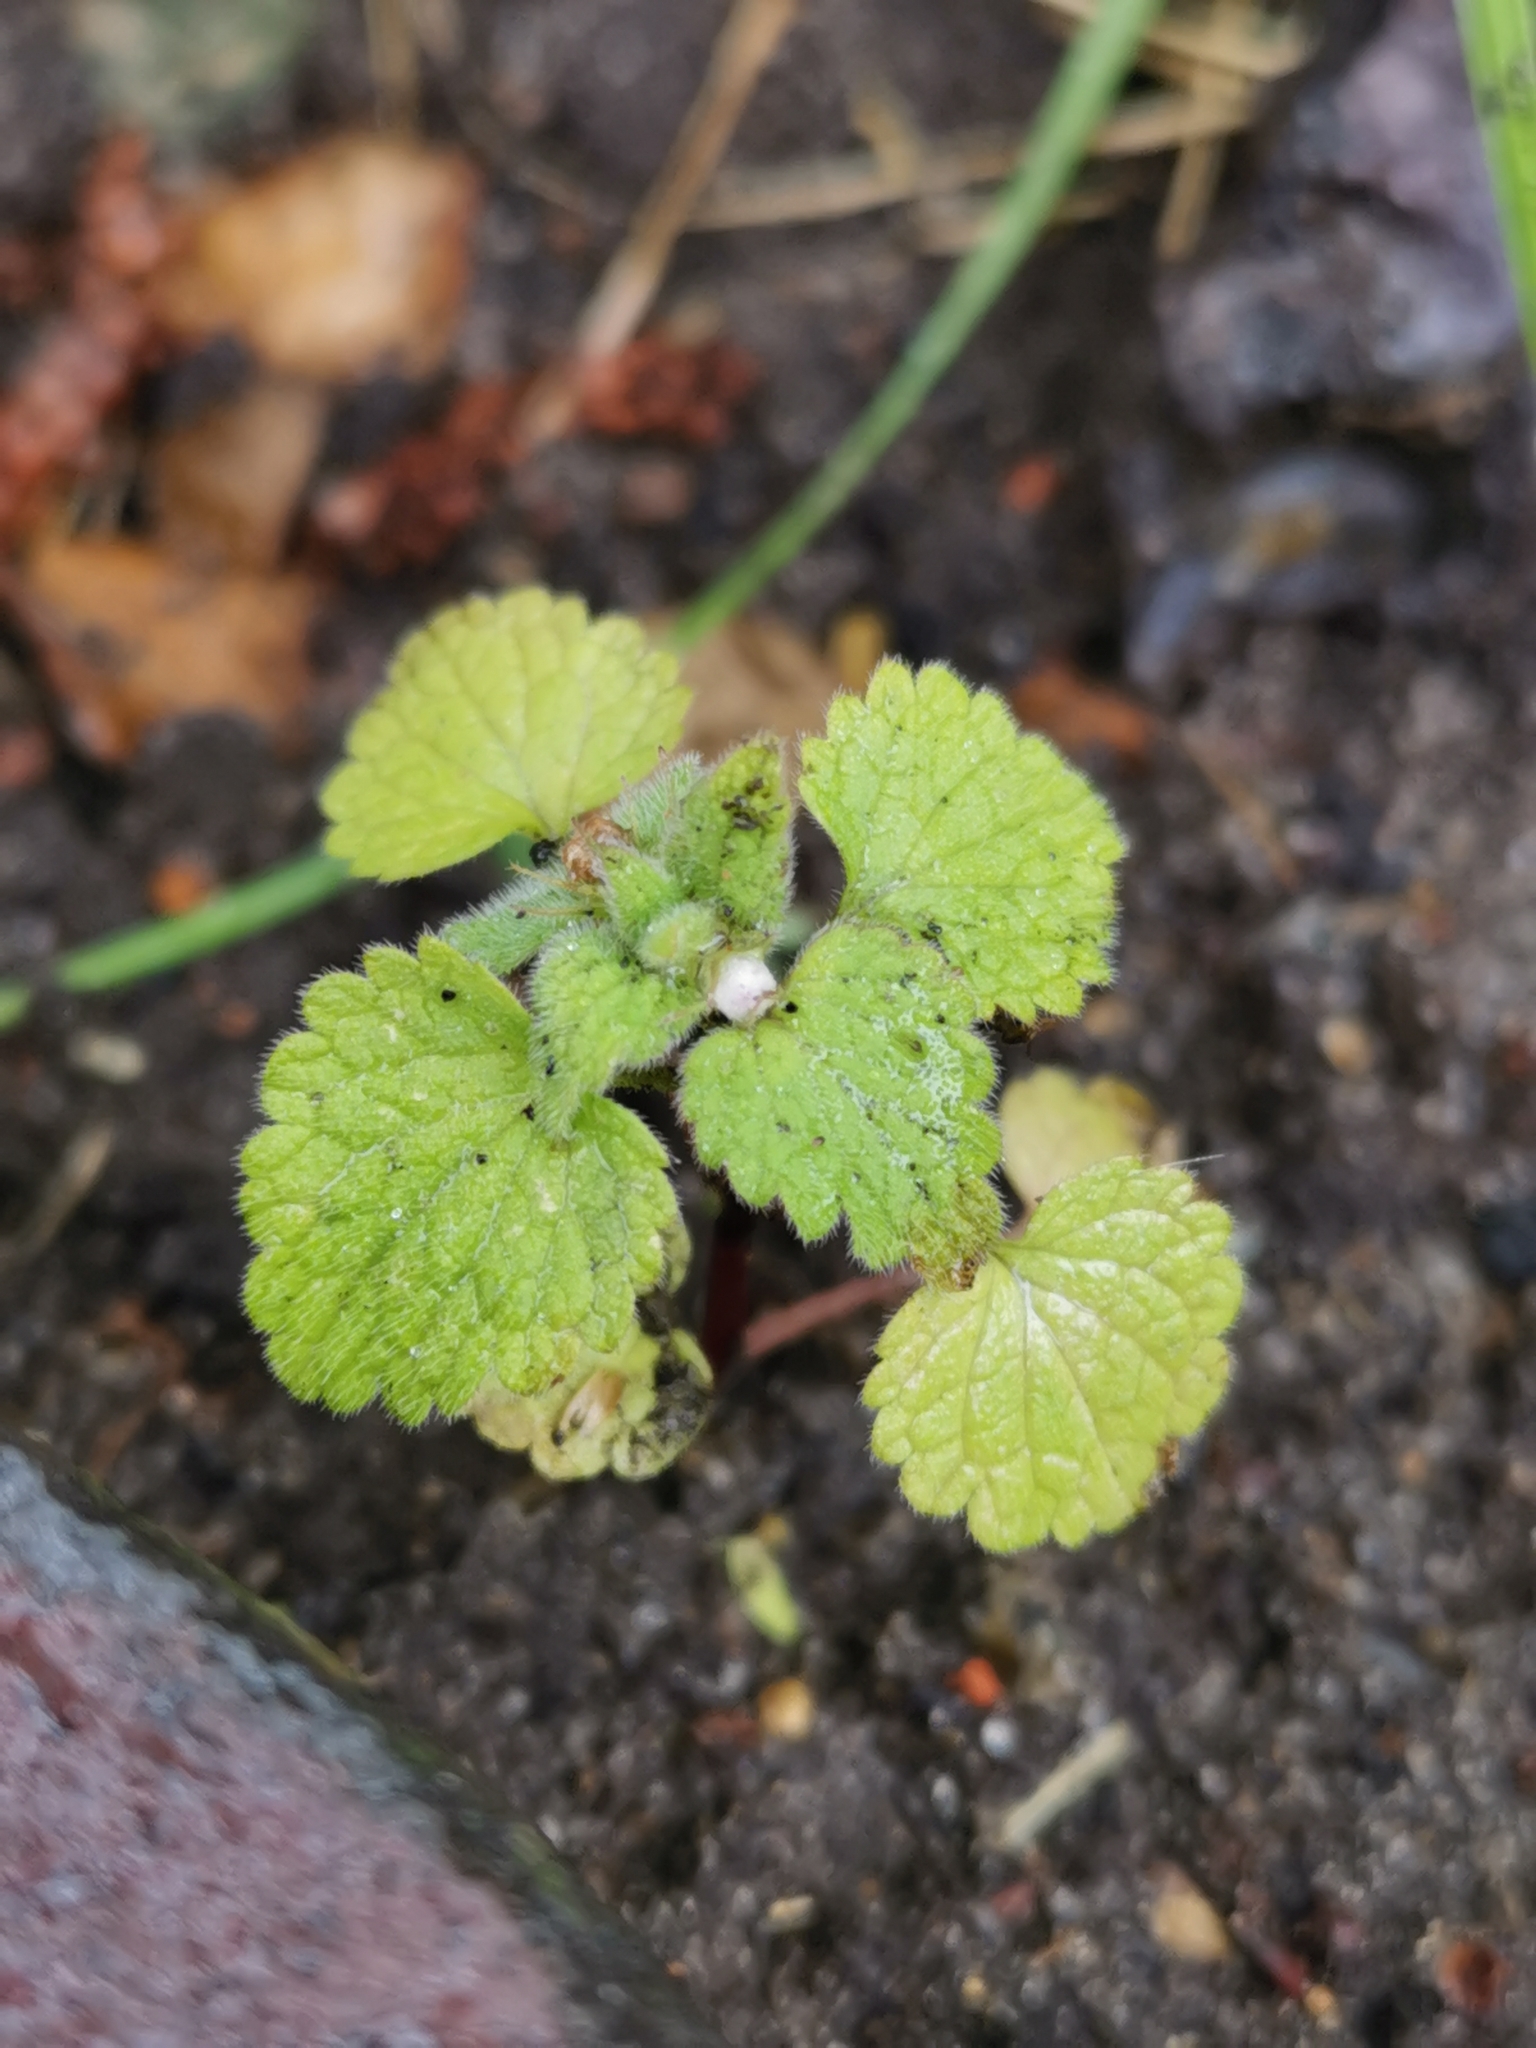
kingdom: Plantae
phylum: Tracheophyta
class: Magnoliopsida
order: Lamiales
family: Lamiaceae
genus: Lamium
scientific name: Lamium purpureum
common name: Red dead-nettle
